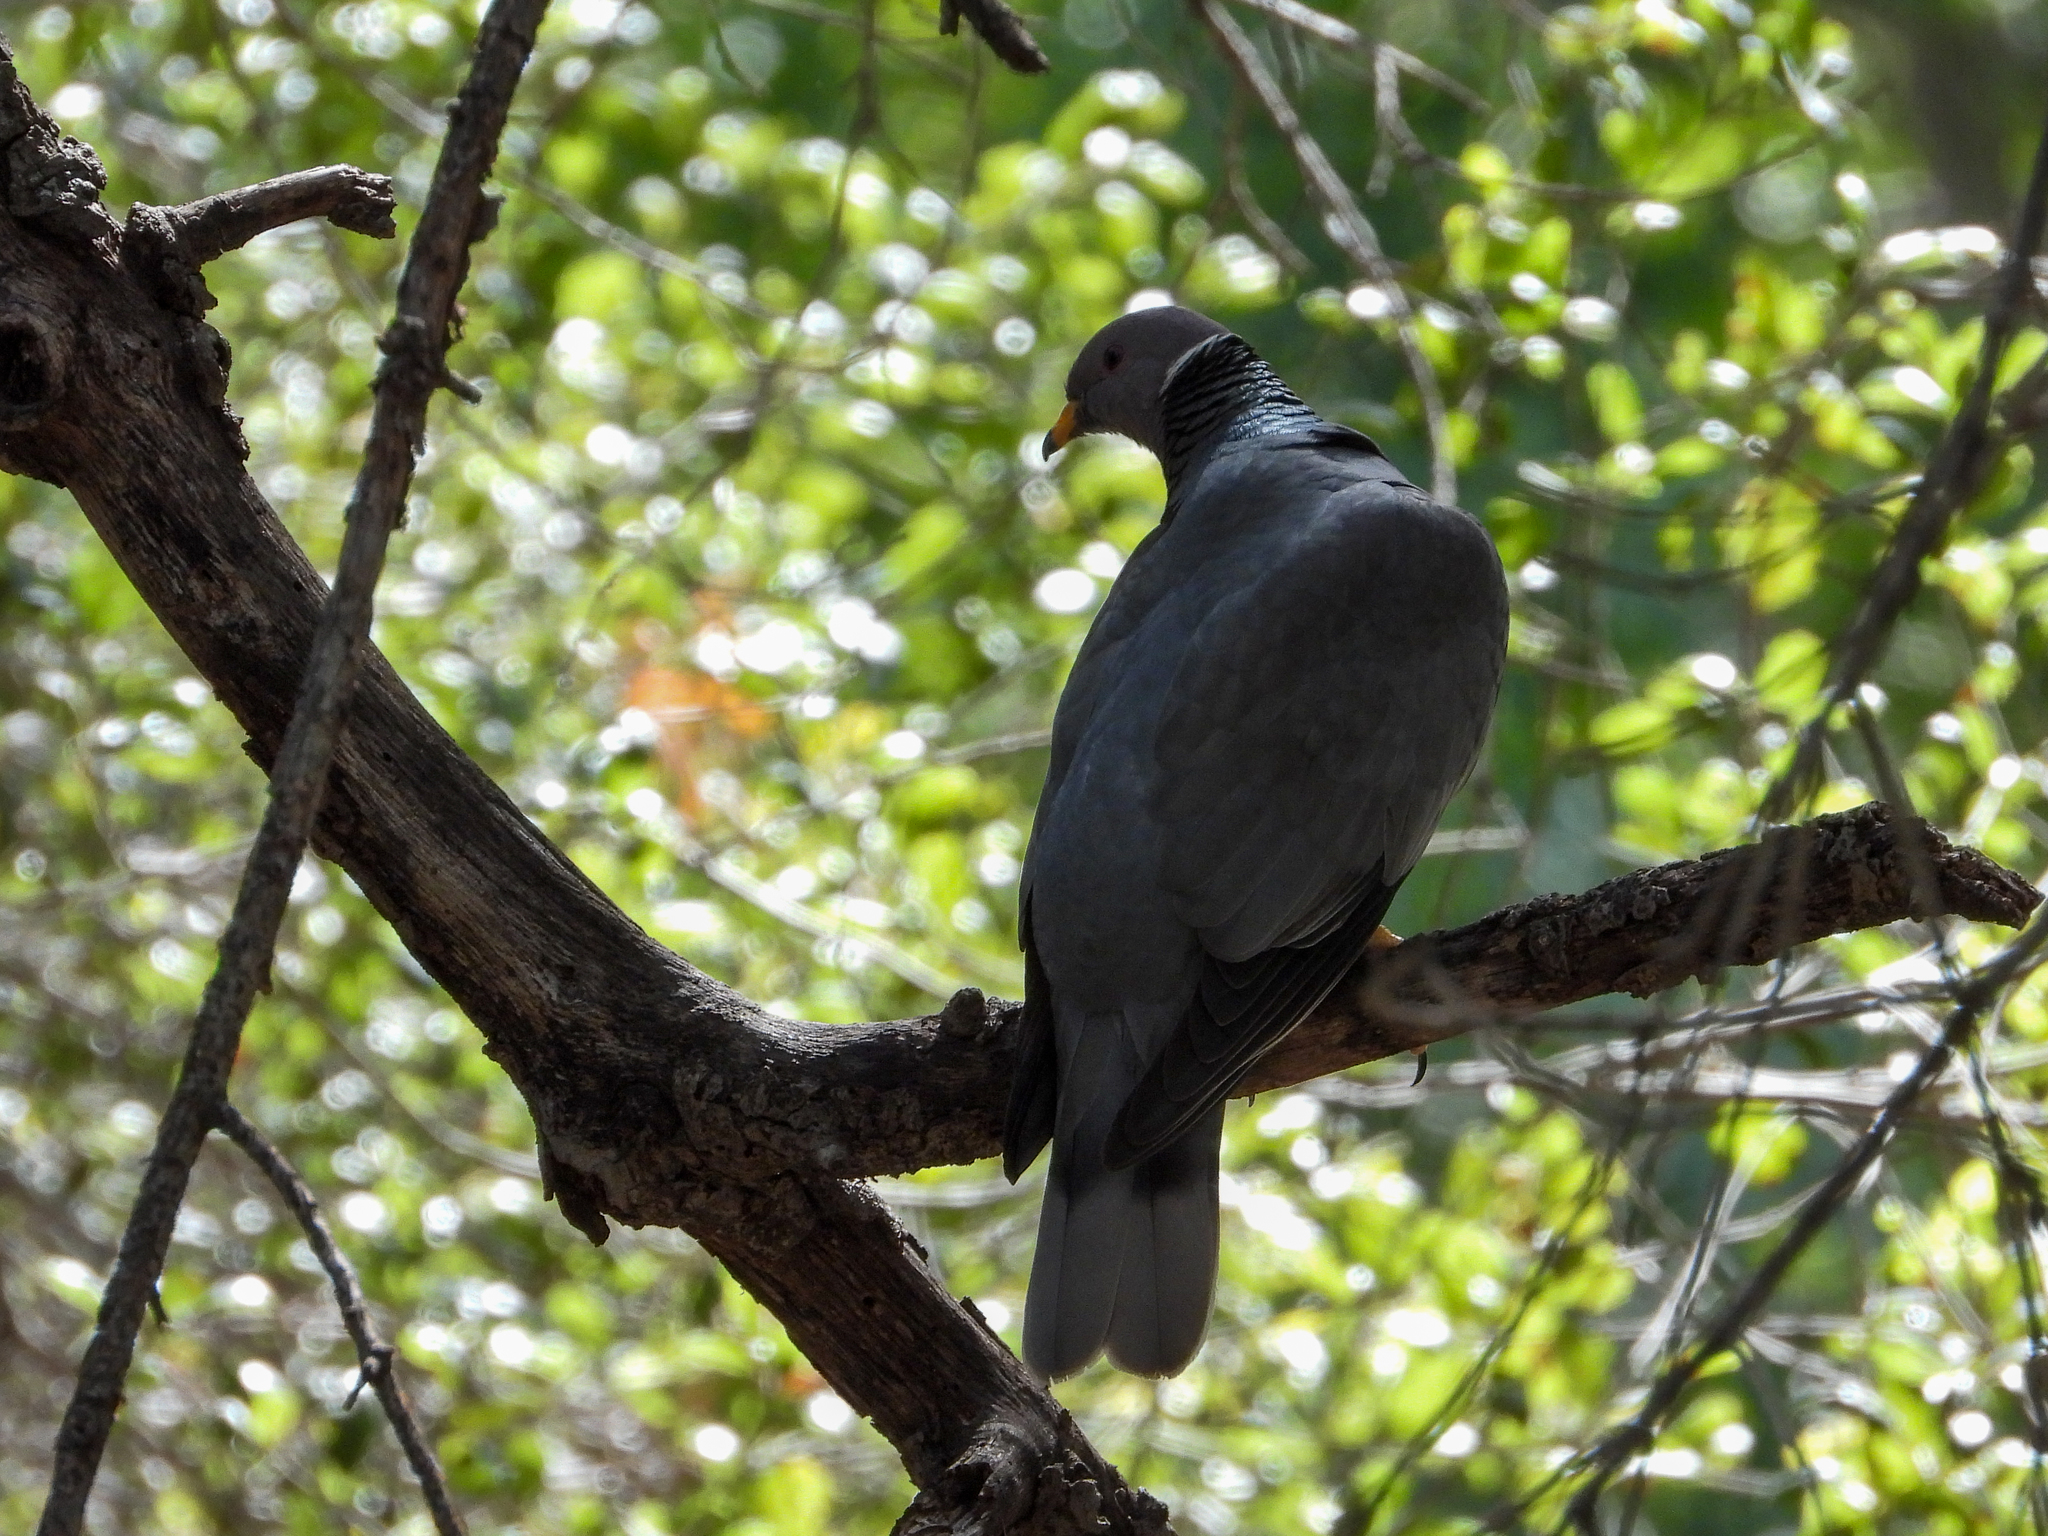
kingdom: Animalia
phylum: Chordata
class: Aves
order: Columbiformes
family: Columbidae
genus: Patagioenas
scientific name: Patagioenas fasciata
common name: Band-tailed pigeon
